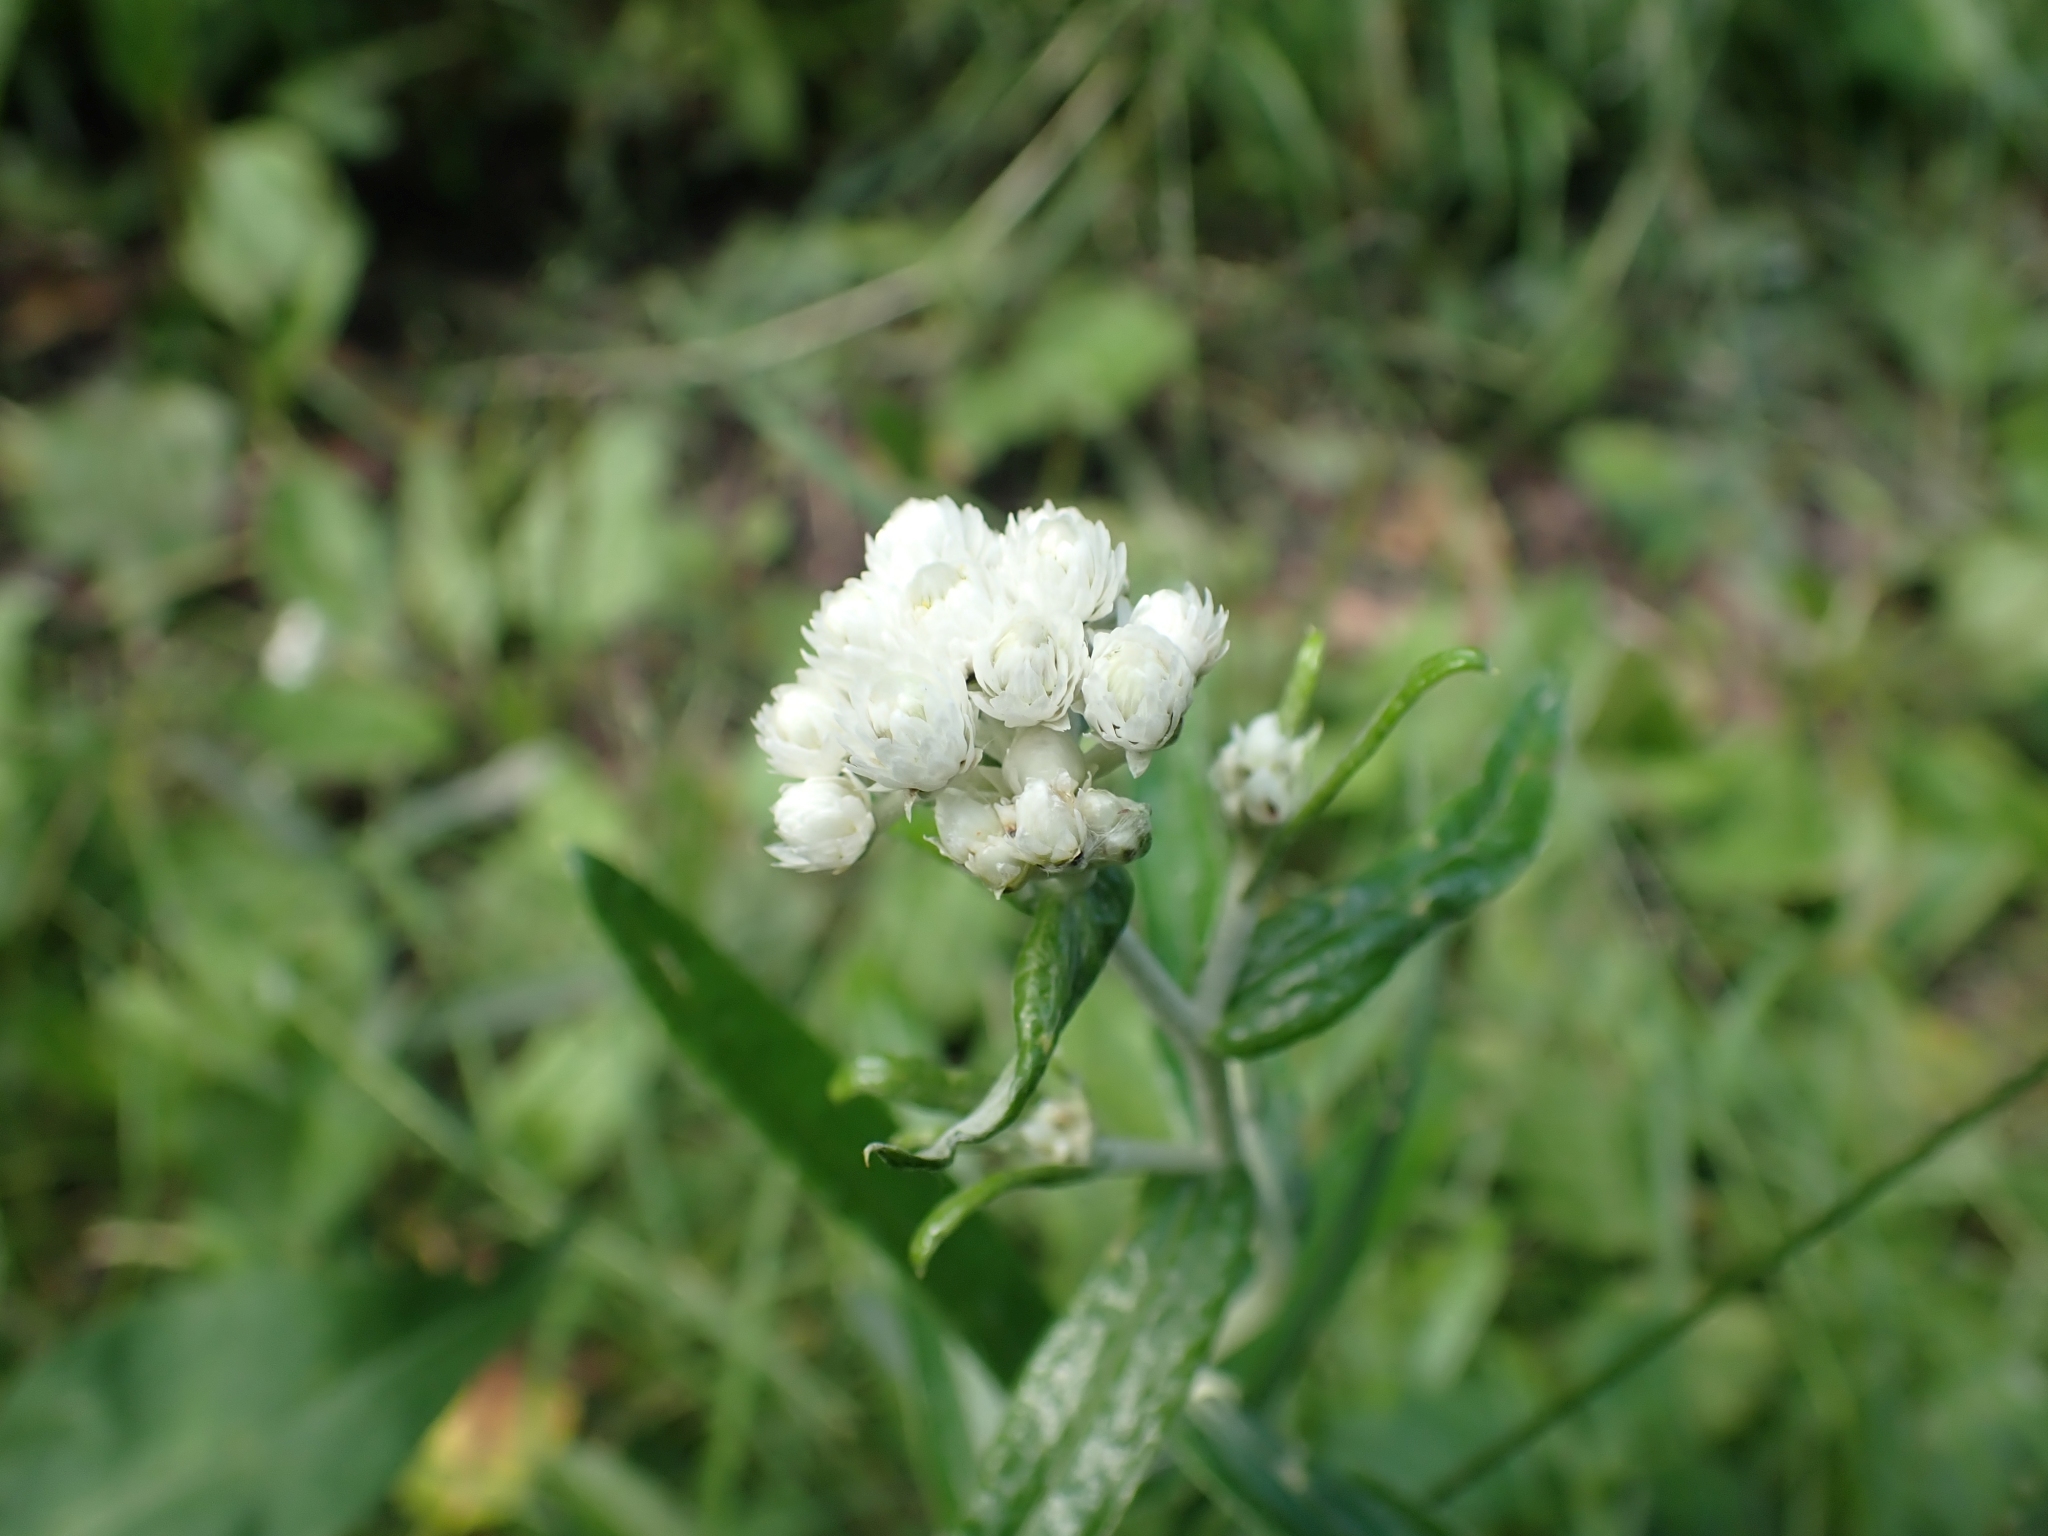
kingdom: Plantae
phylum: Tracheophyta
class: Magnoliopsida
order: Asterales
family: Asteraceae
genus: Anaphalis
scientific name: Anaphalis margaritacea
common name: Pearly everlasting
